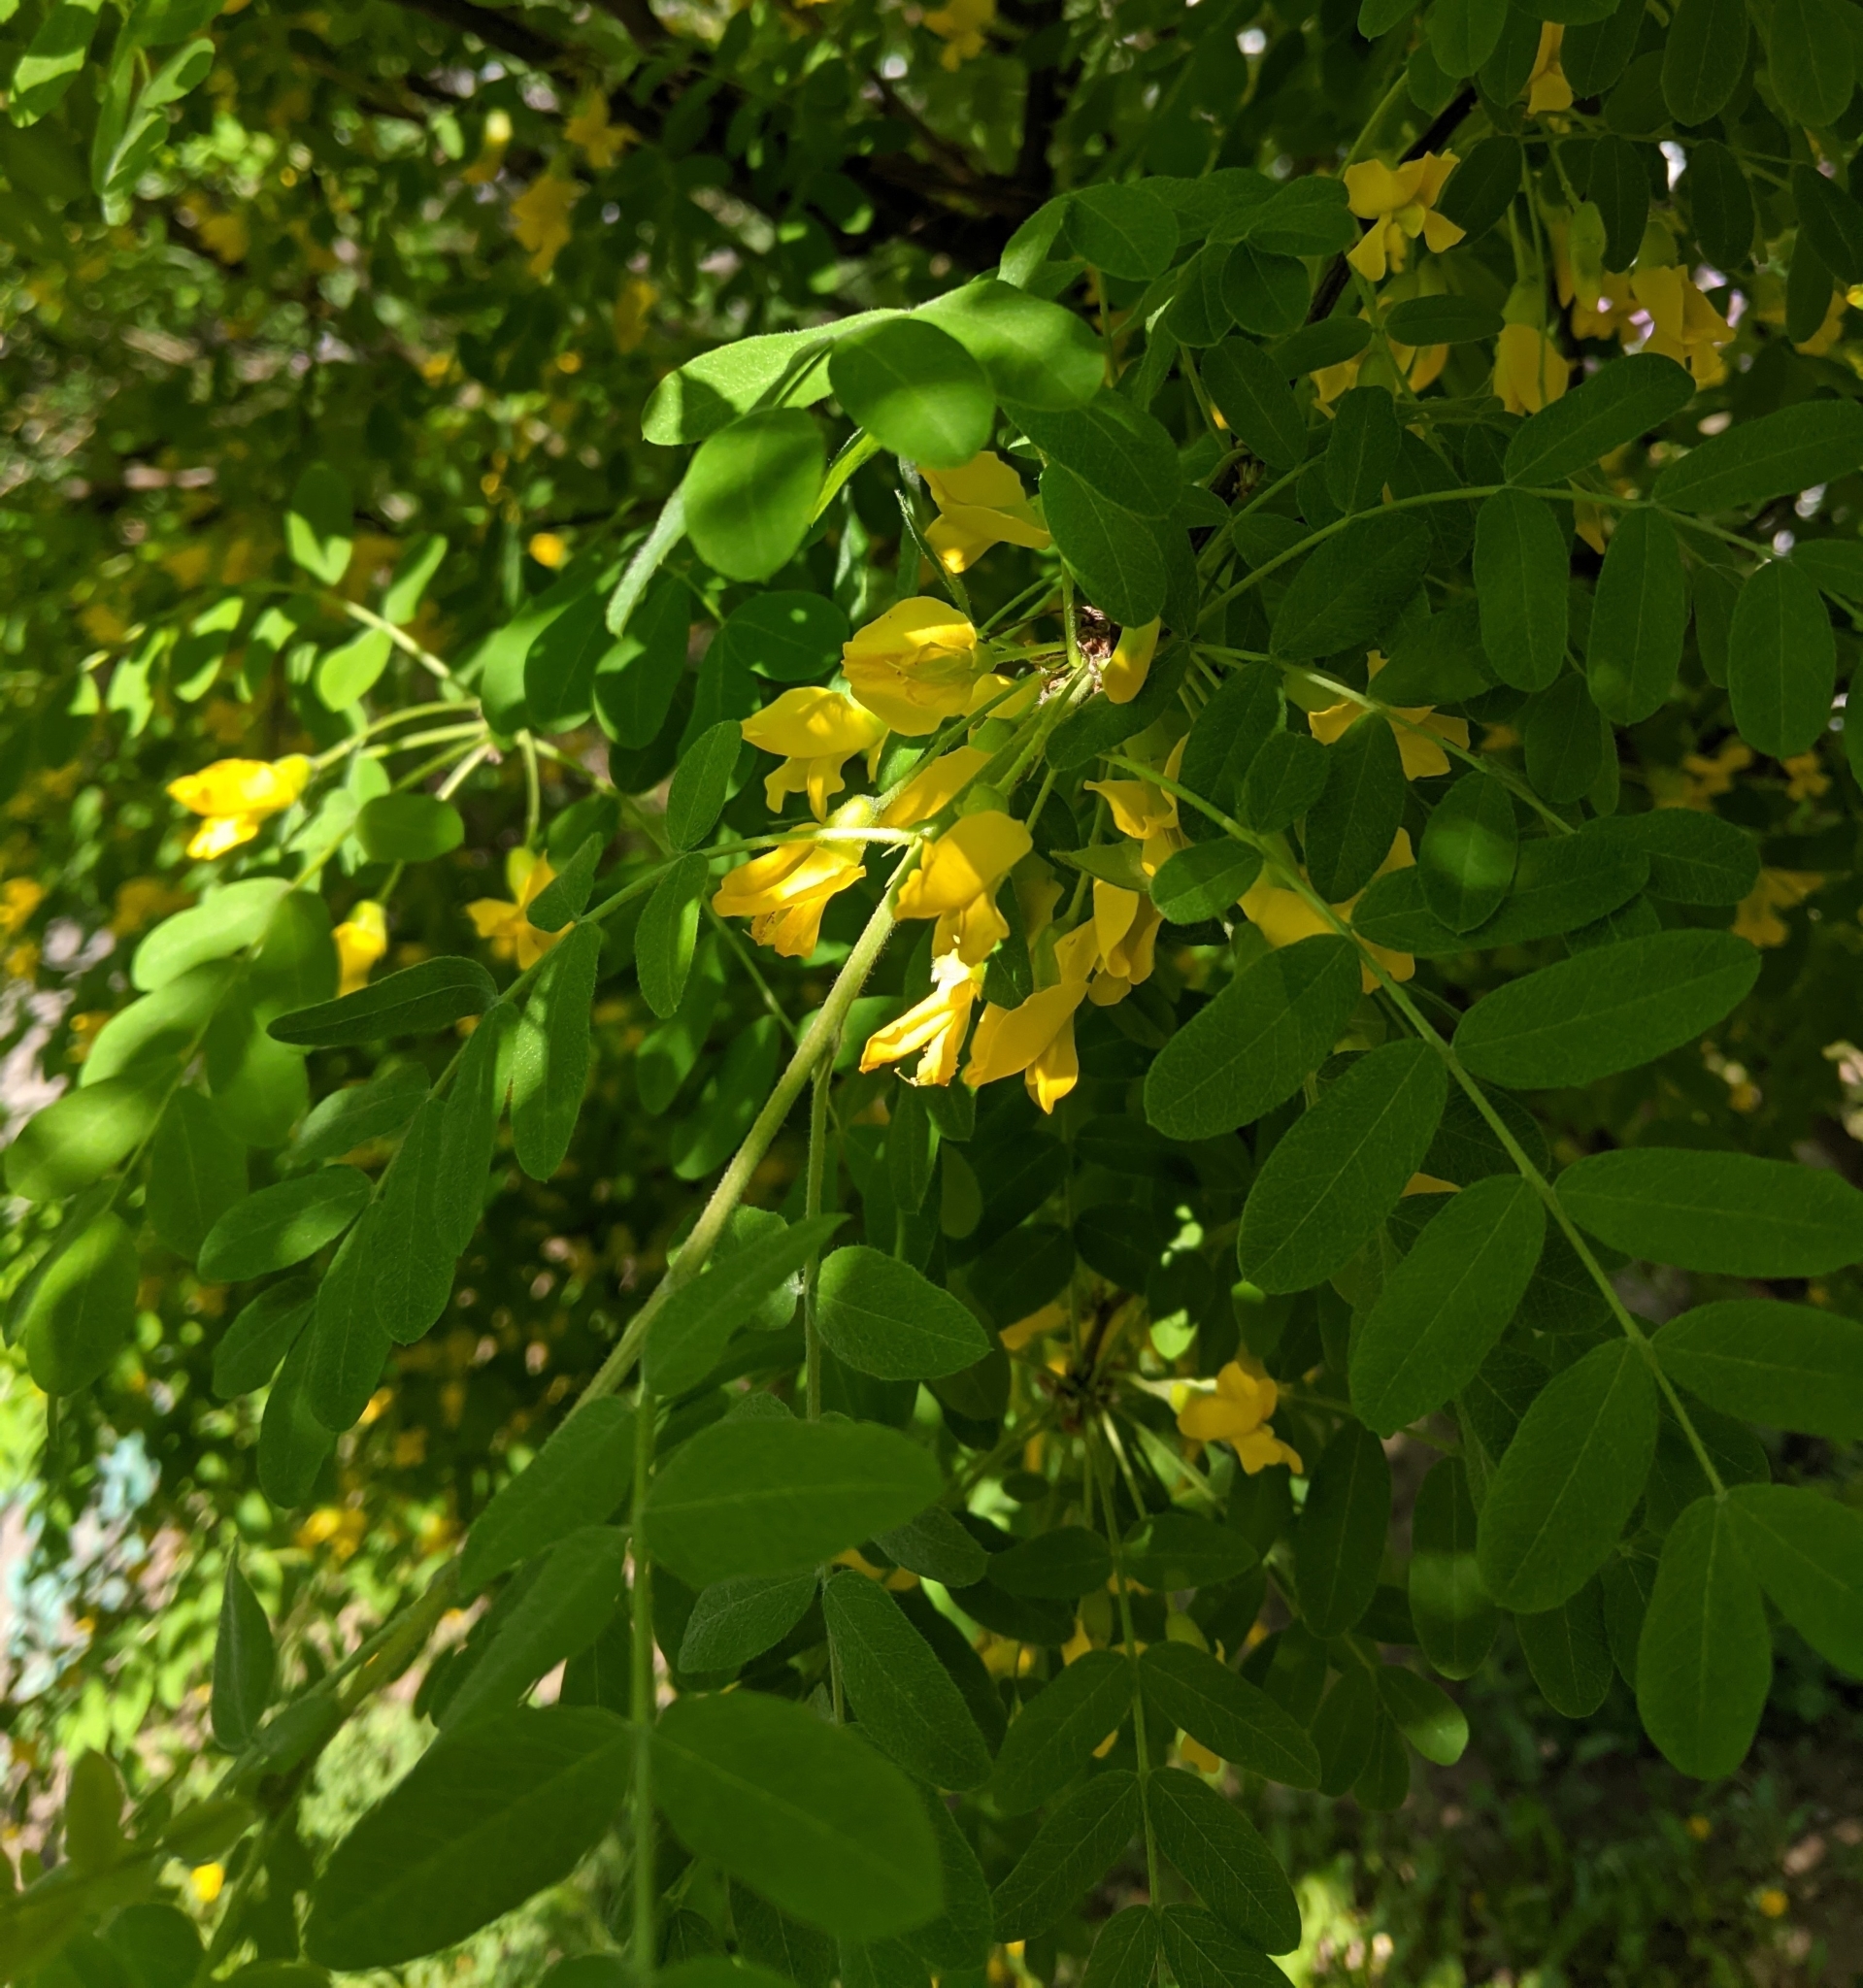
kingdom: Plantae
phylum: Tracheophyta
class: Magnoliopsida
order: Fabales
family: Fabaceae
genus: Caragana
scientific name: Caragana arborescens
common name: Siberian peashrub
